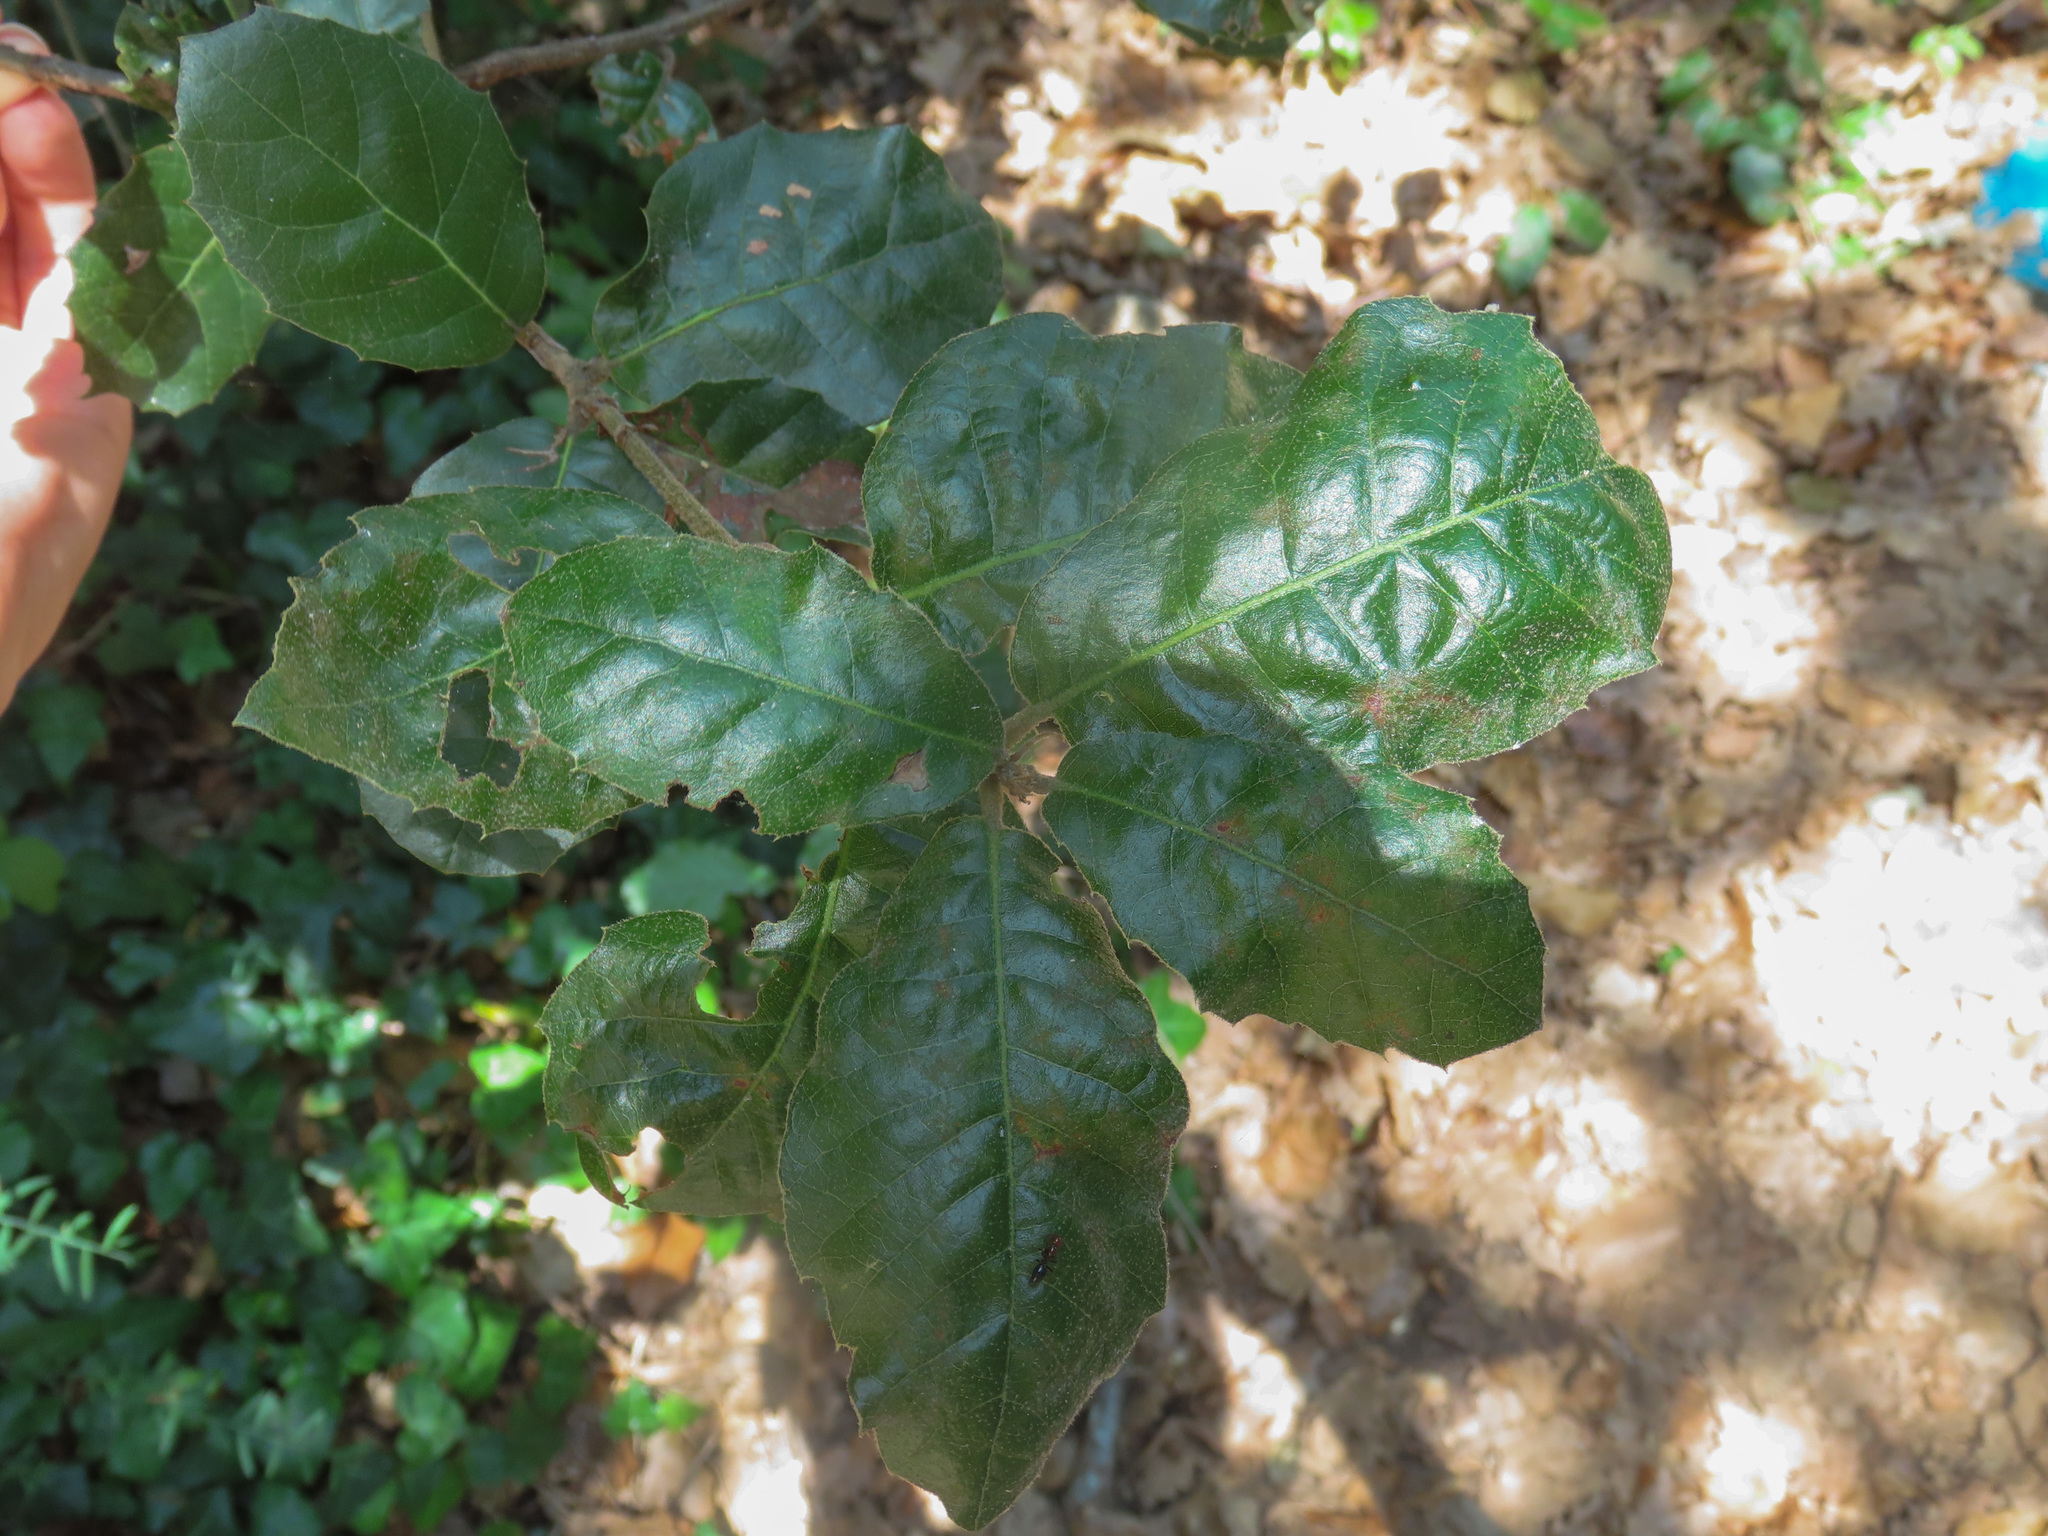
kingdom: Plantae
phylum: Tracheophyta
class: Magnoliopsida
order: Fagales
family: Fagaceae
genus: Quercus
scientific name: Quercus ilex
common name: Evergreen oak
